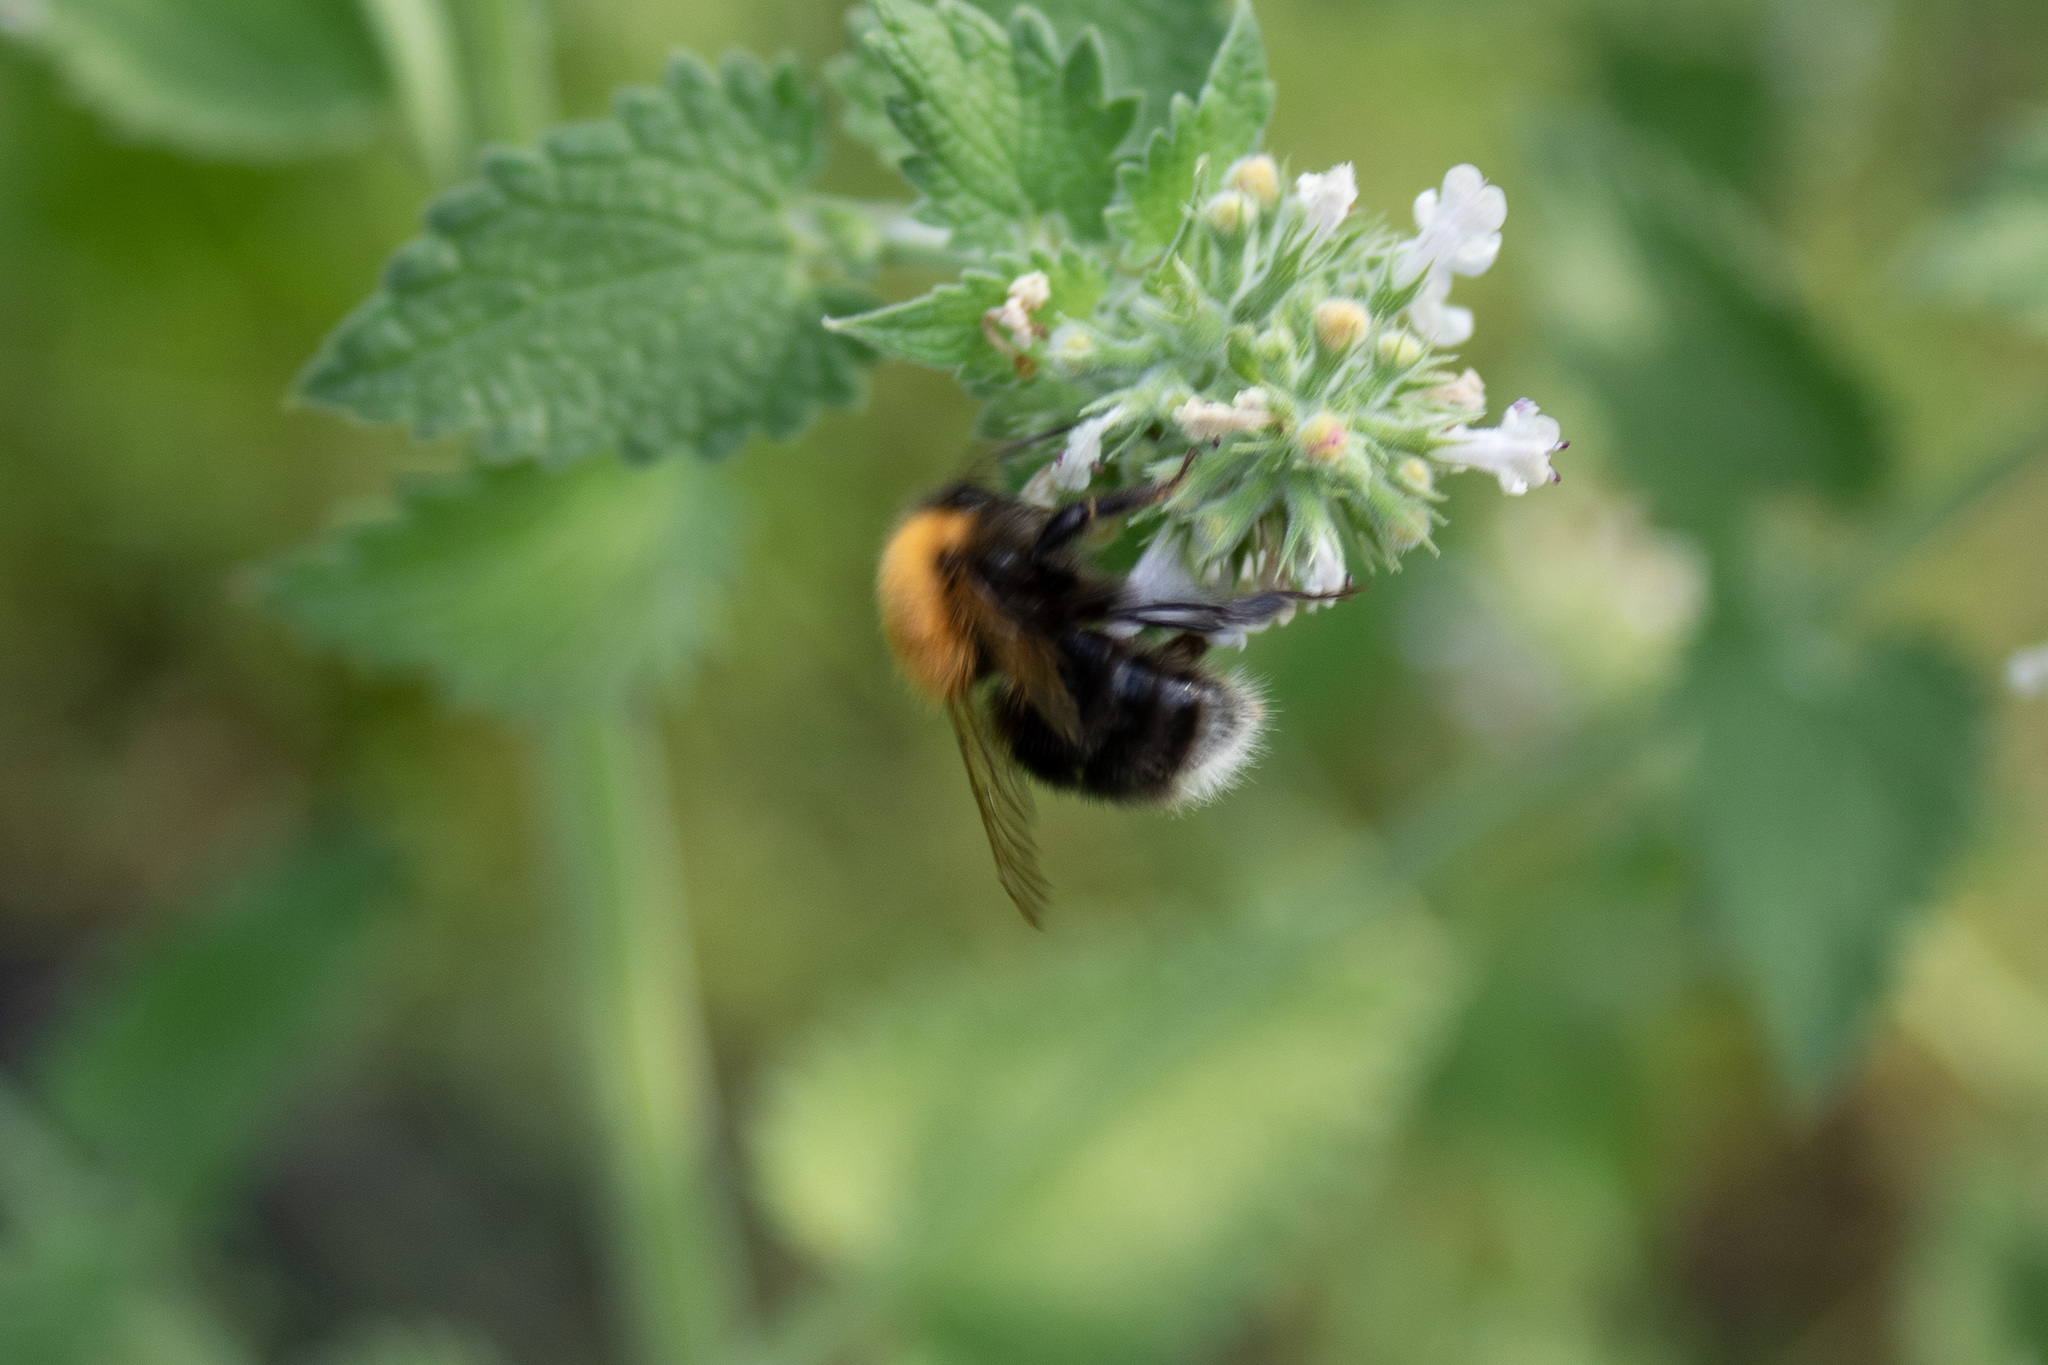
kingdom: Animalia
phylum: Arthropoda
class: Insecta
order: Hymenoptera
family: Apidae
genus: Bombus
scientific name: Bombus hypnorum
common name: New garden bumblebee
